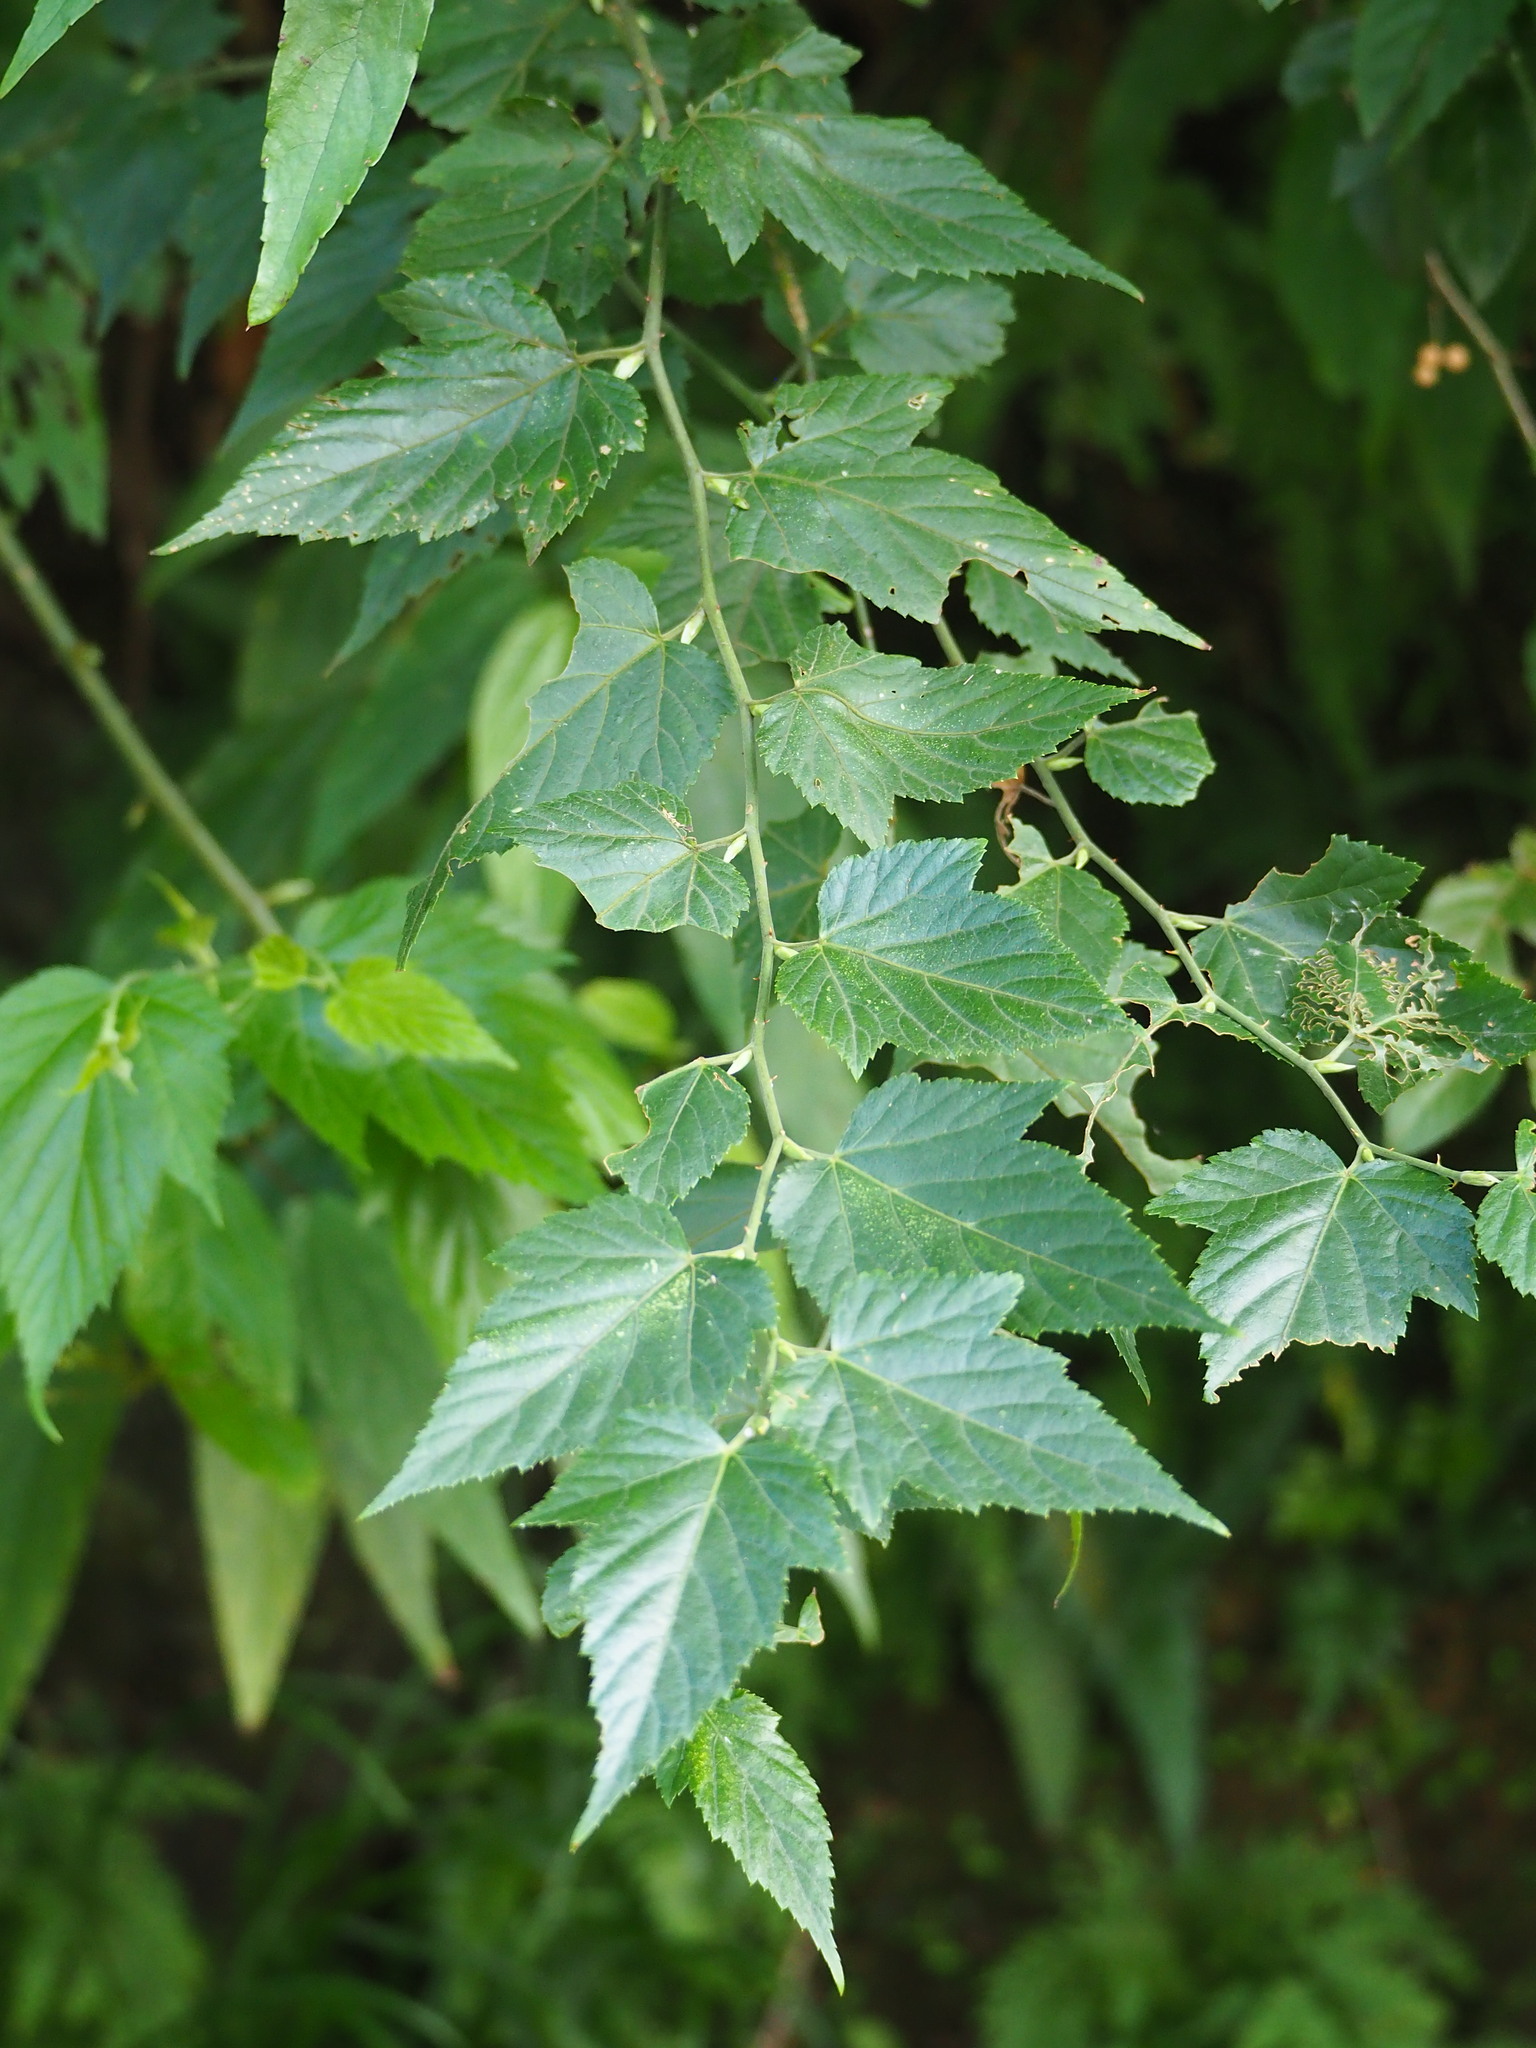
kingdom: Plantae
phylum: Tracheophyta
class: Magnoliopsida
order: Rosales
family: Rosaceae
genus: Rubus
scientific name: Rubus corchorifolius
